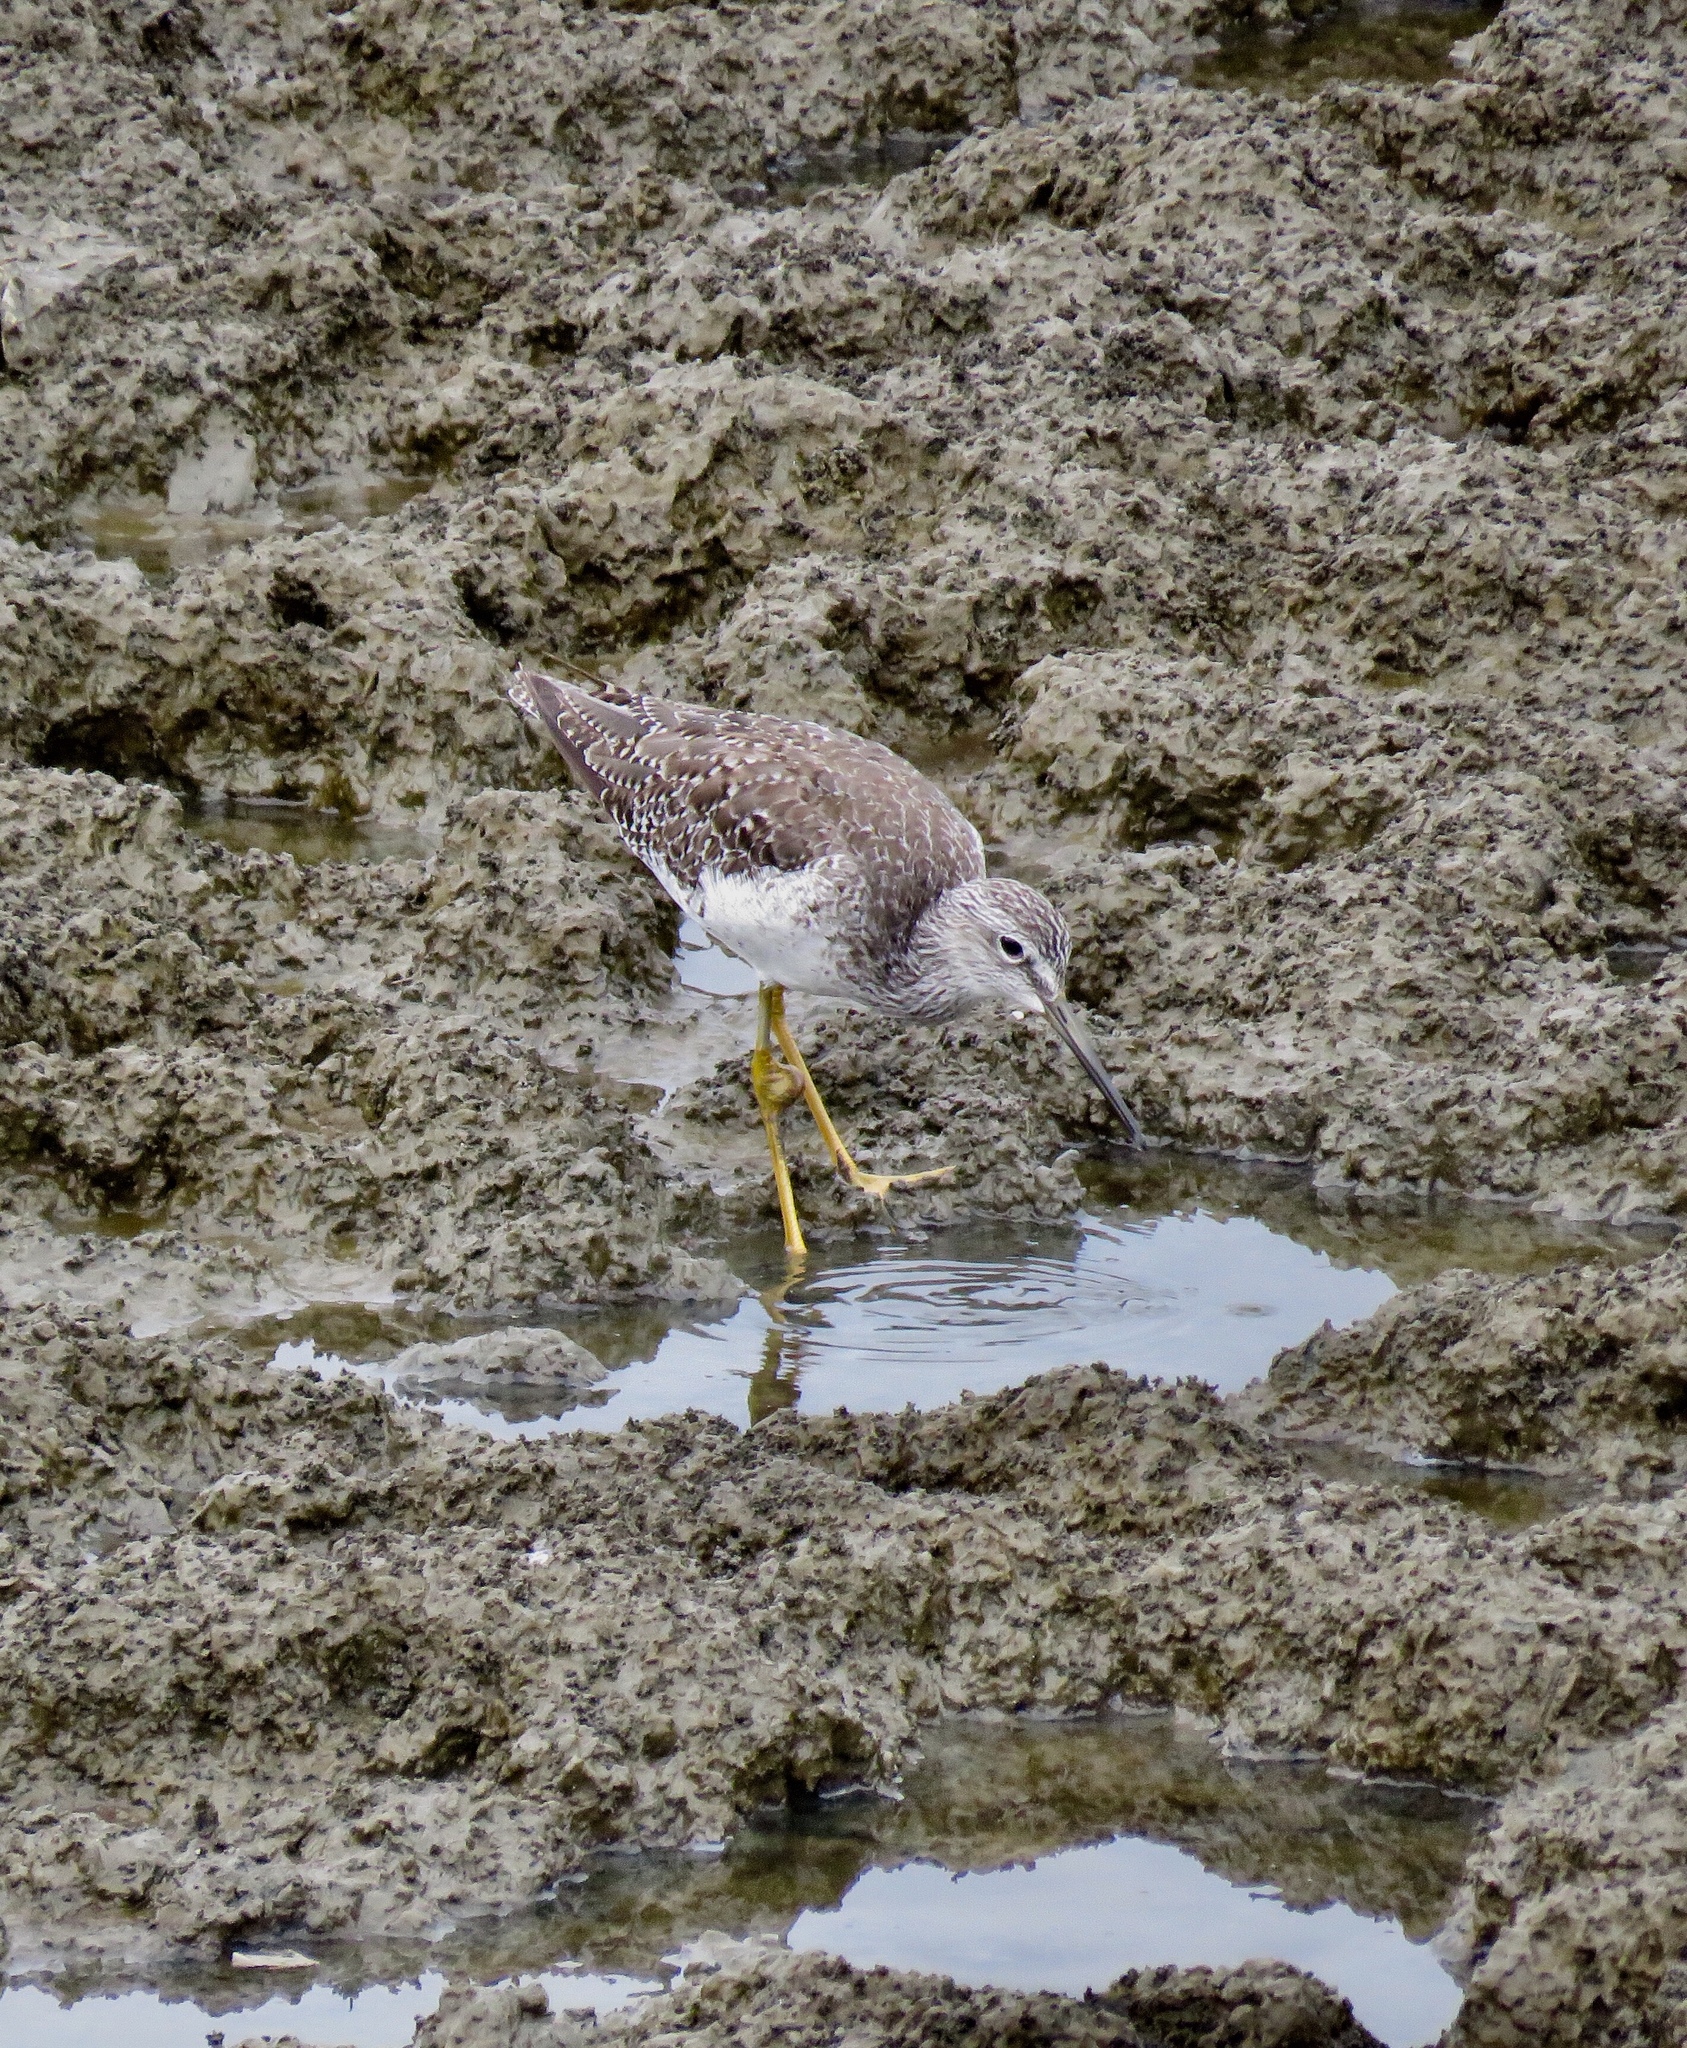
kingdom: Animalia
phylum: Chordata
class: Aves
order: Charadriiformes
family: Scolopacidae
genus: Tringa
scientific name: Tringa melanoleuca
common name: Greater yellowlegs
